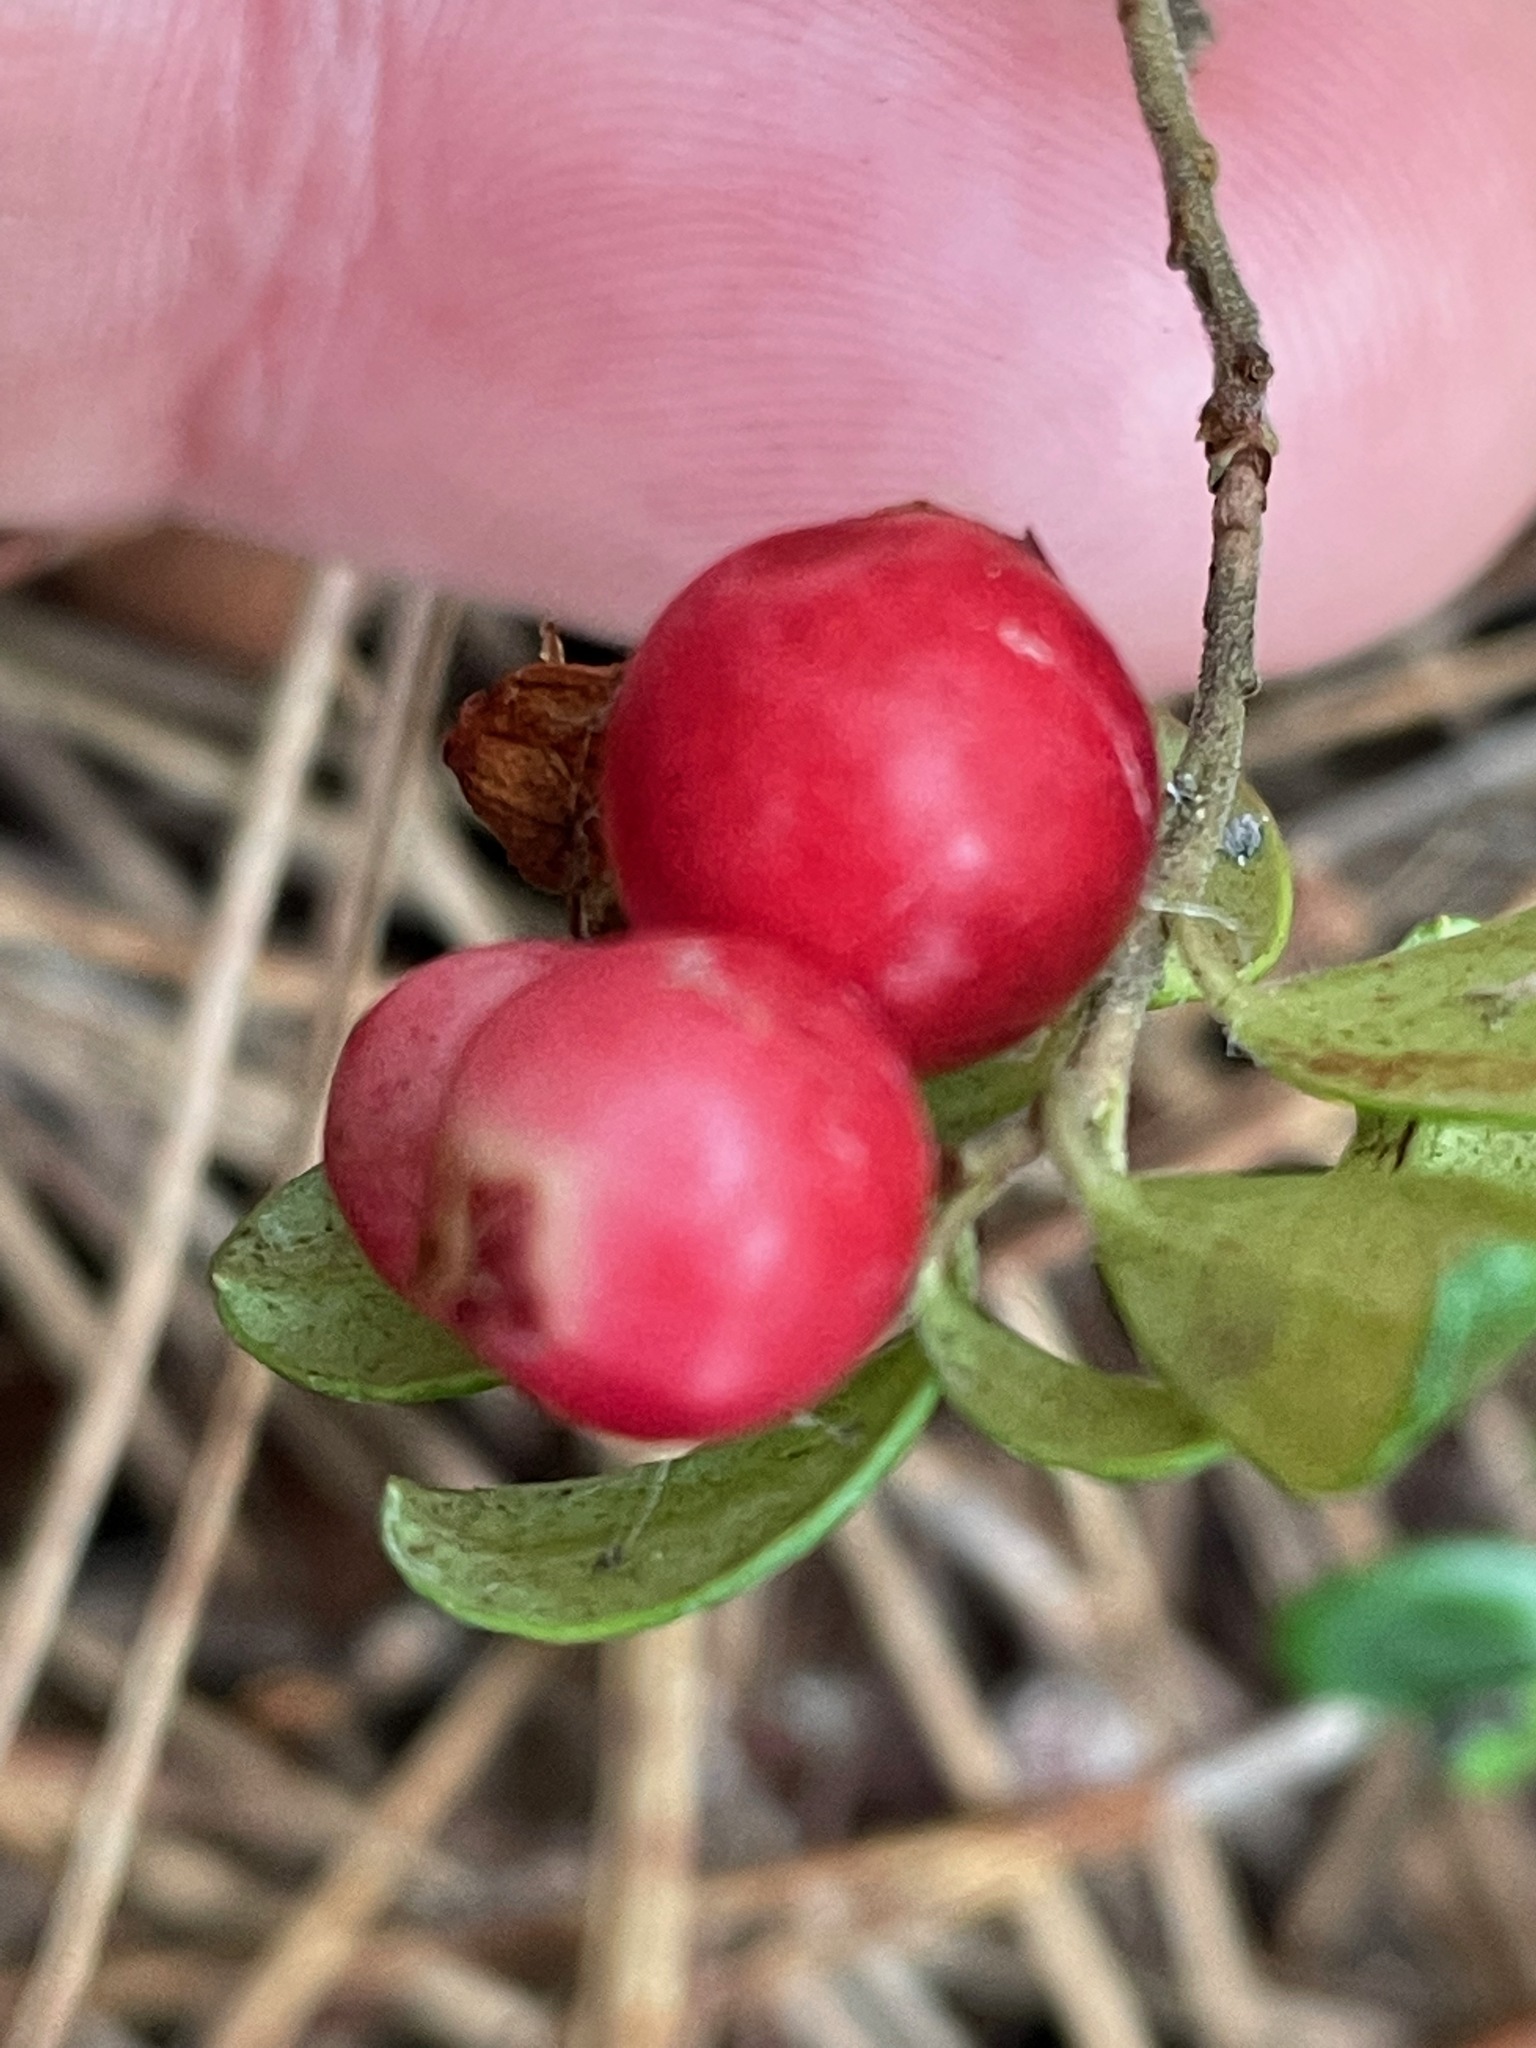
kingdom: Plantae
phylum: Tracheophyta
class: Magnoliopsida
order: Ericales
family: Ericaceae
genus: Vaccinium
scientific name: Vaccinium vitis-idaea
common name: Cowberry
